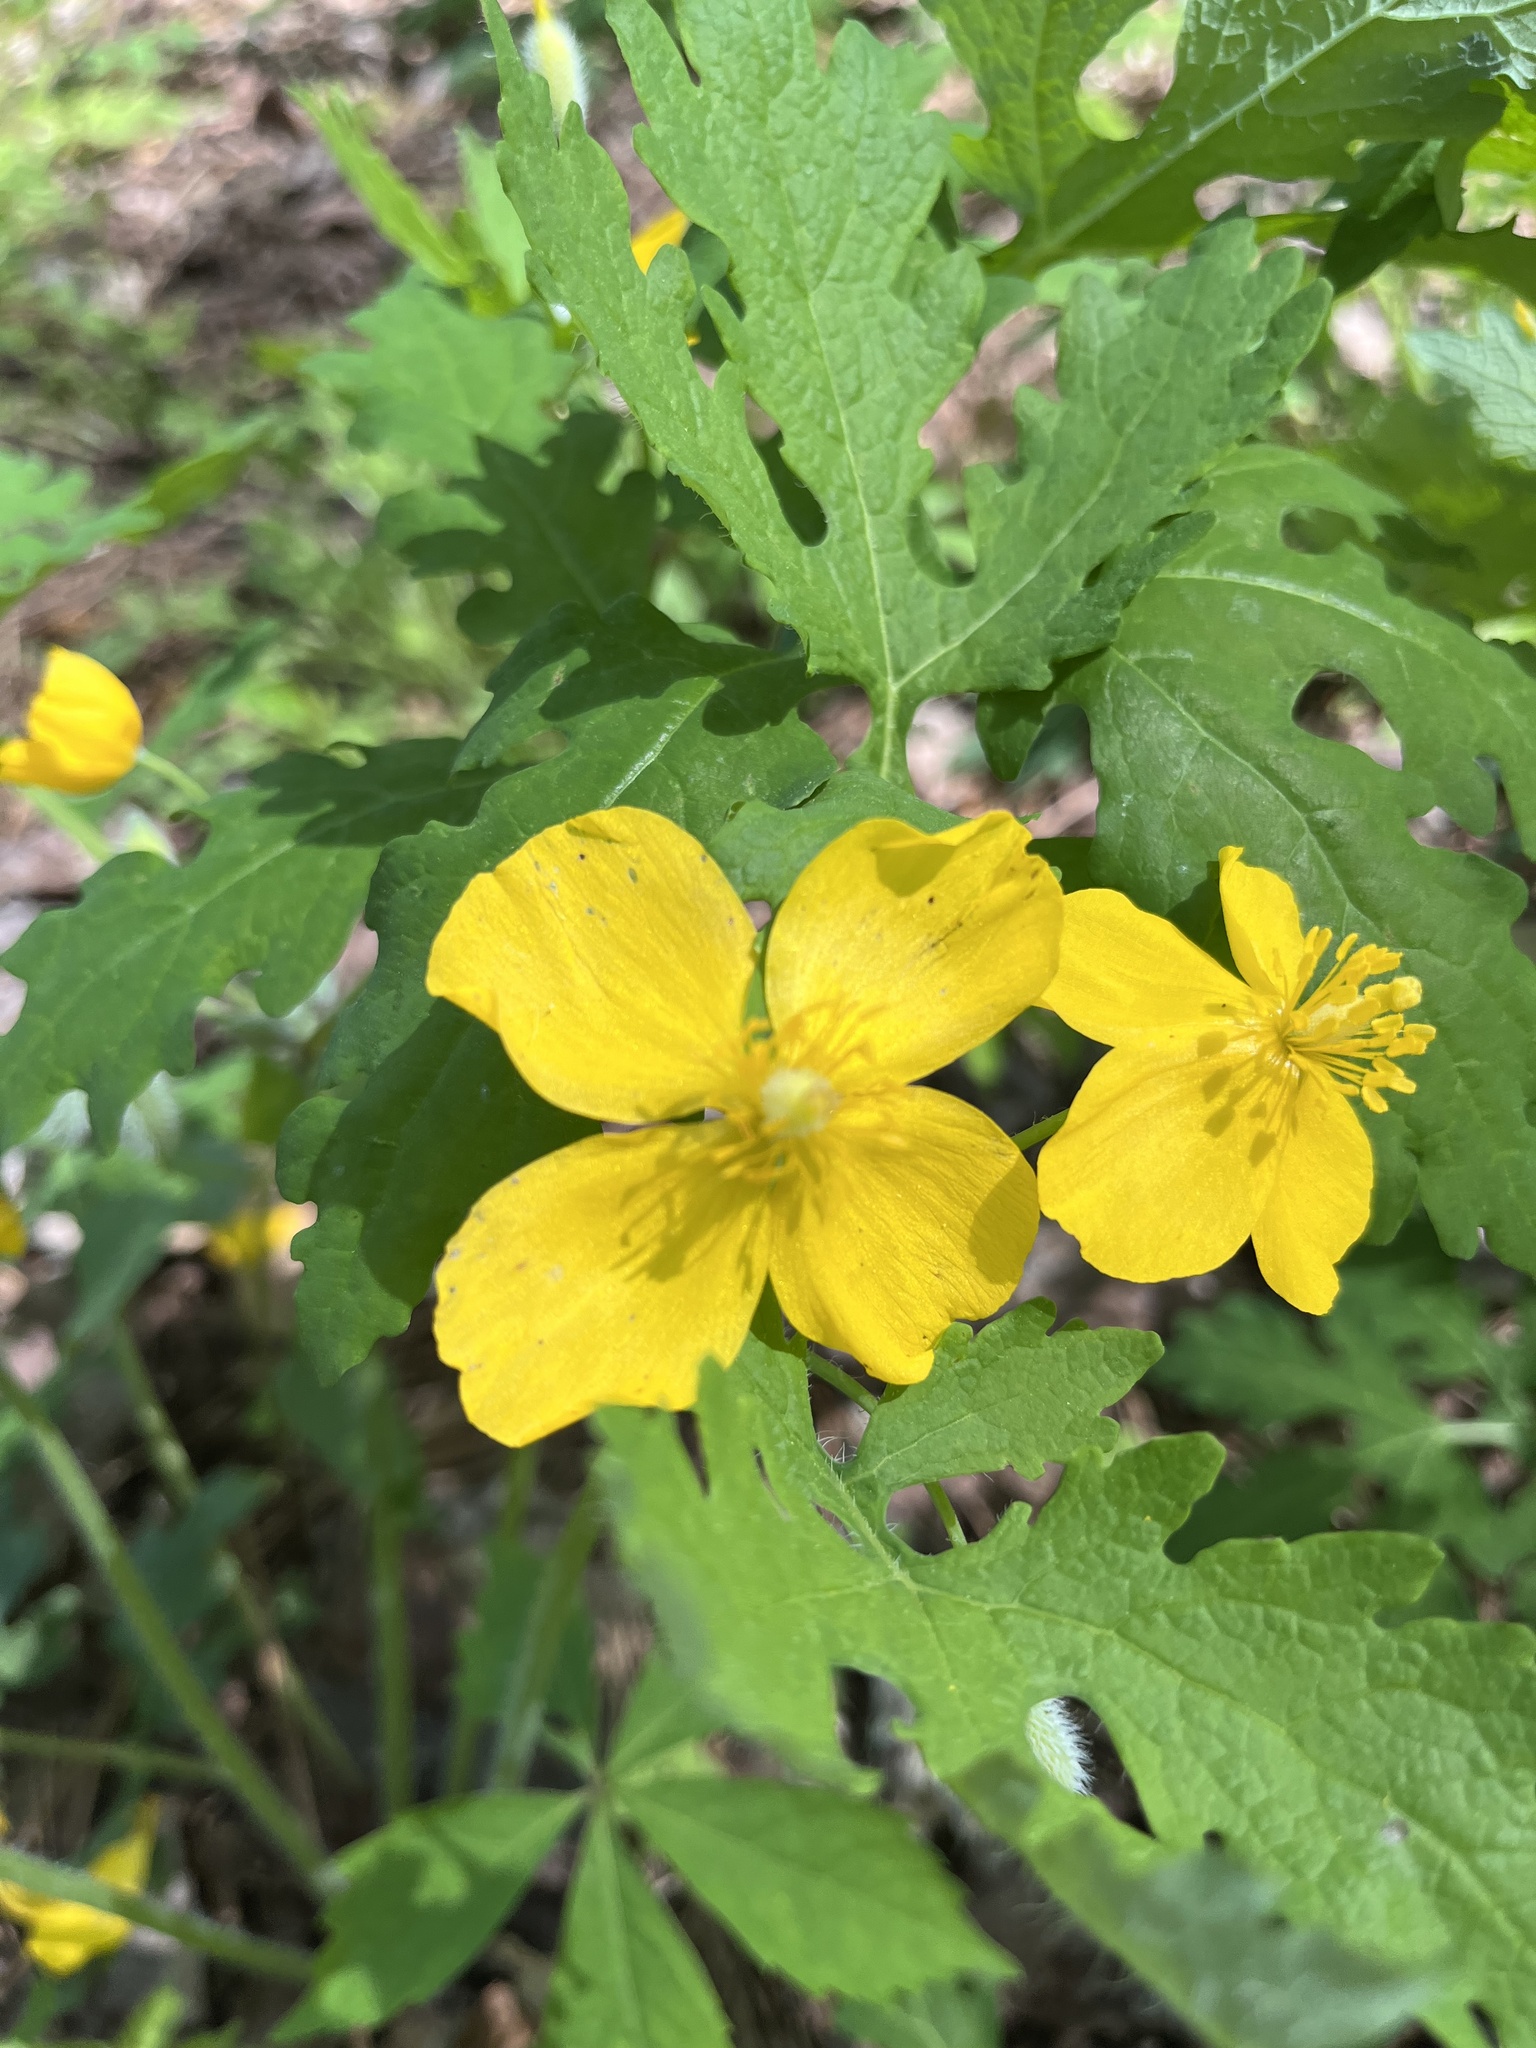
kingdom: Plantae
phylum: Tracheophyta
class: Magnoliopsida
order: Ranunculales
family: Papaveraceae
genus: Stylophorum
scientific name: Stylophorum diphyllum
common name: Celandine poppy
